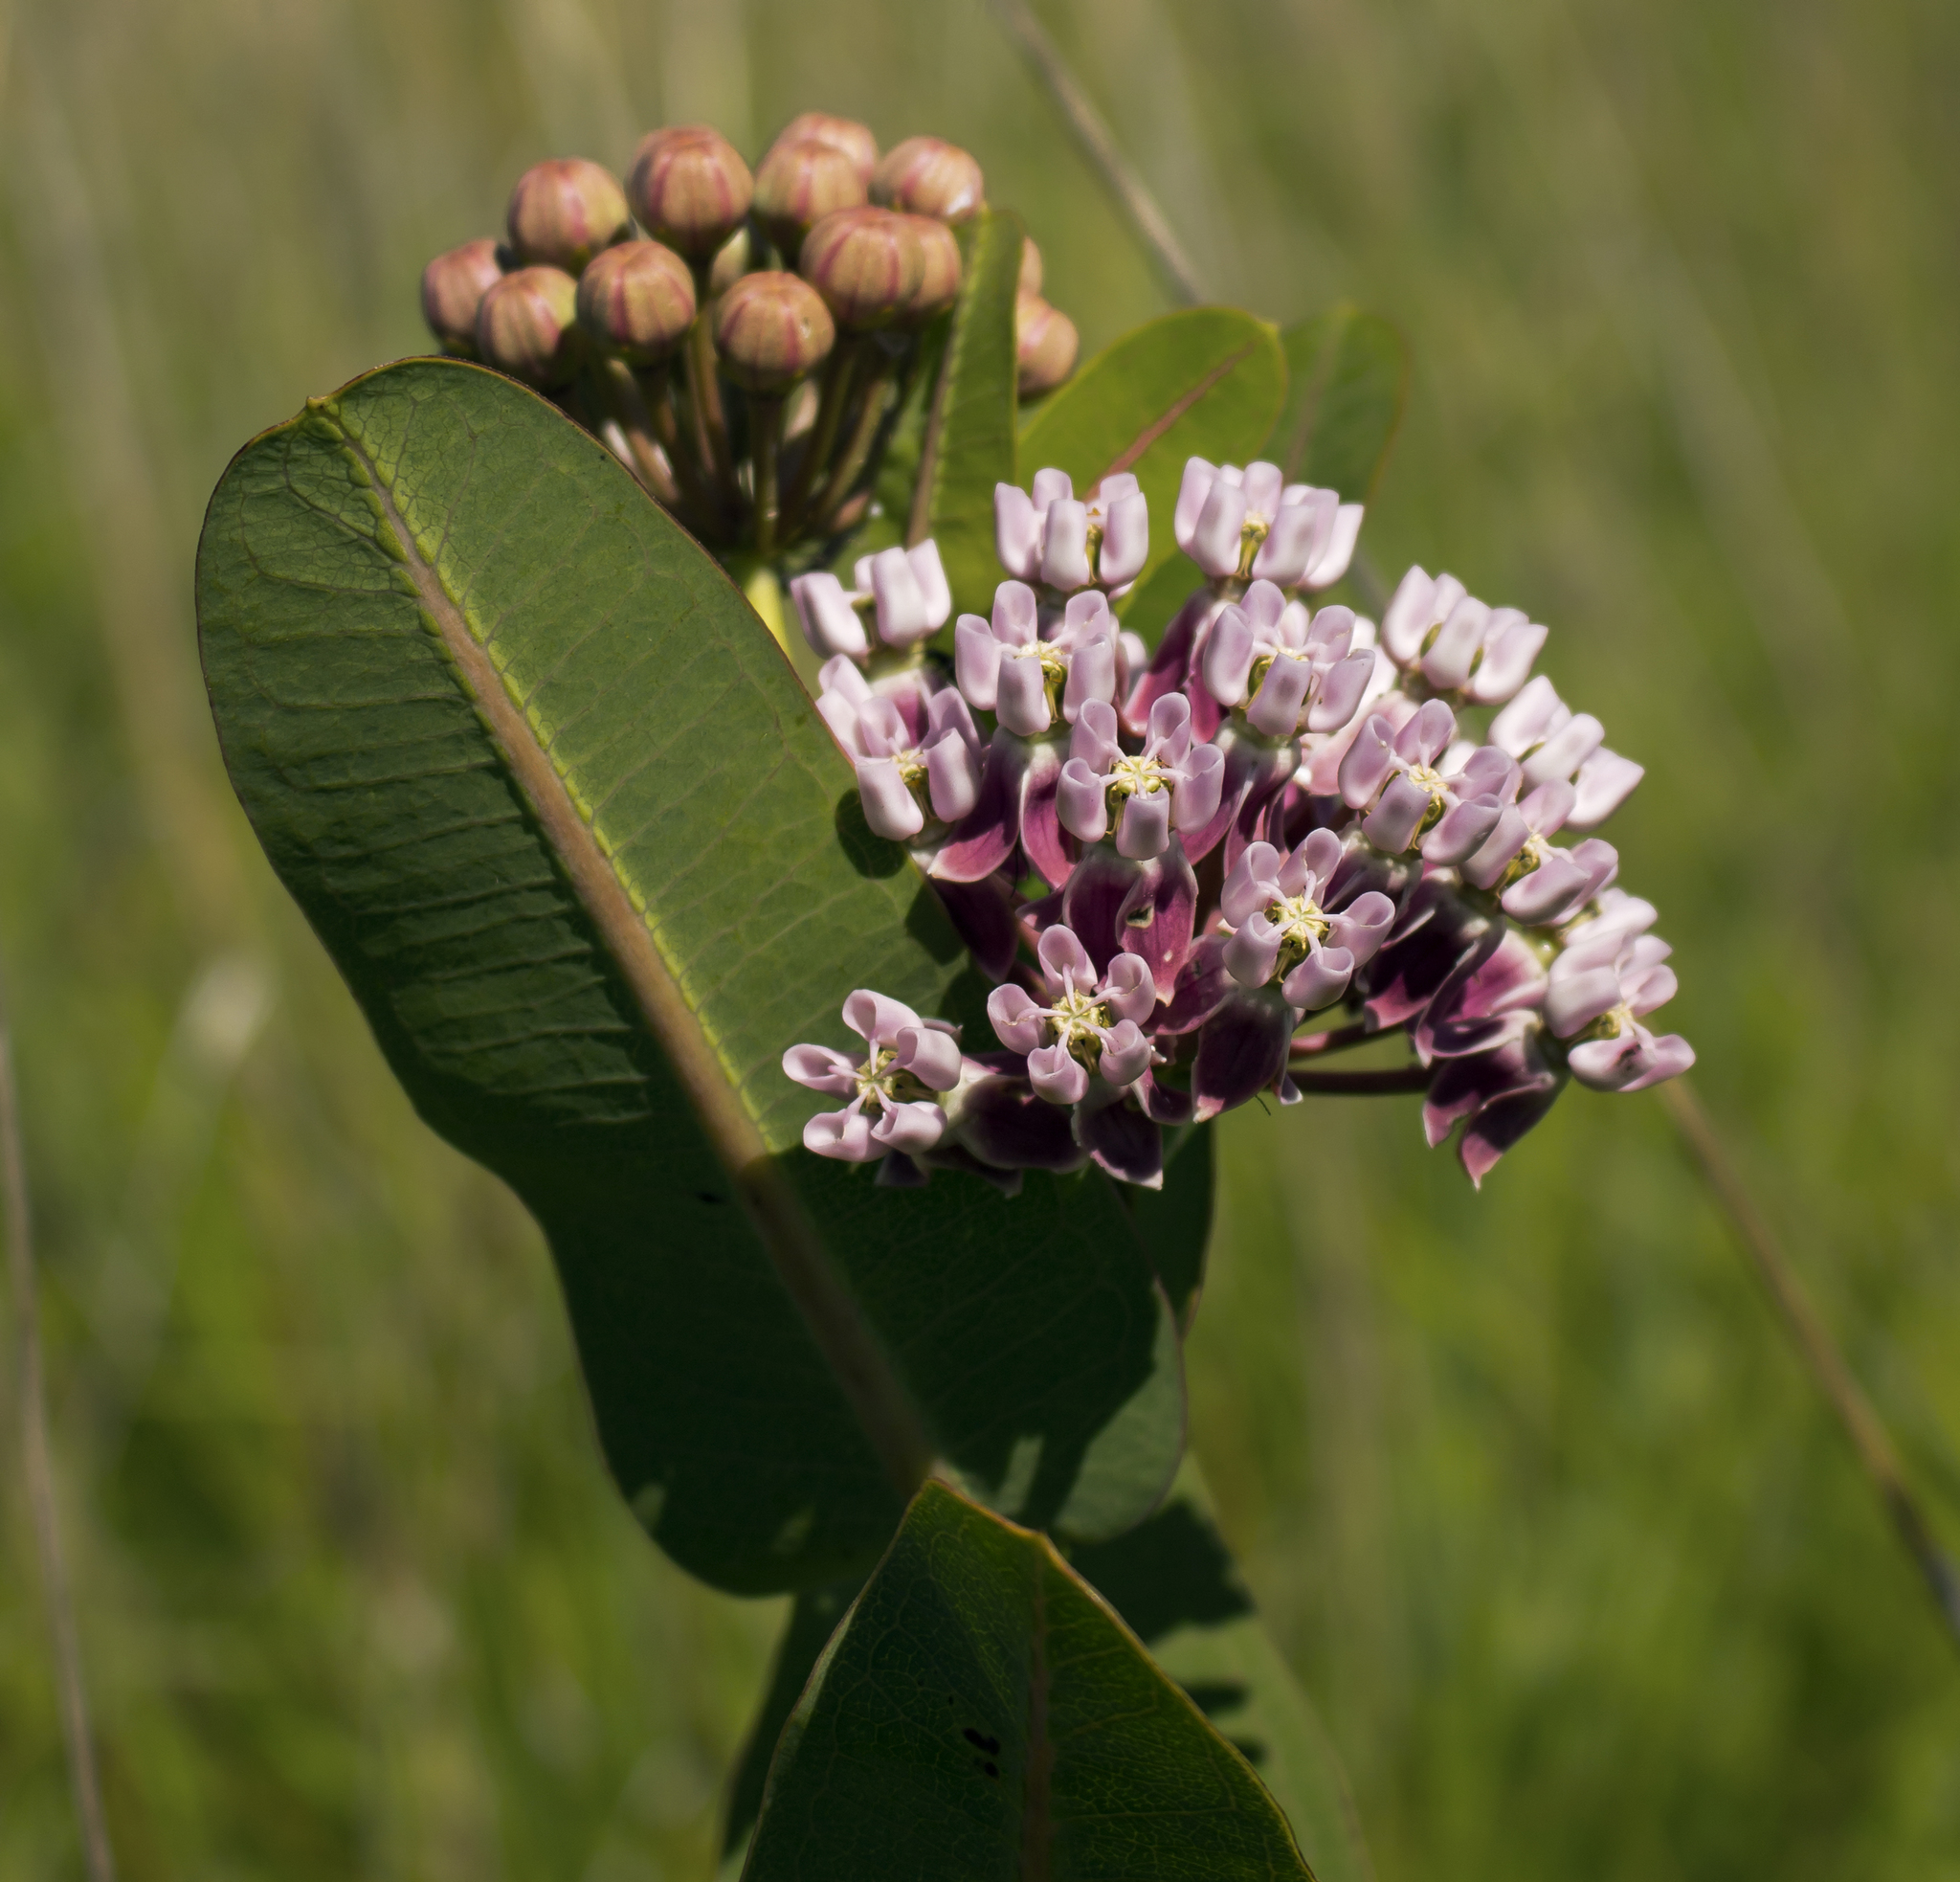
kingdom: Plantae
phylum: Tracheophyta
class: Magnoliopsida
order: Gentianales
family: Apocynaceae
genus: Asclepias
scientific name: Asclepias sullivantii
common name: Prairie milkweed
